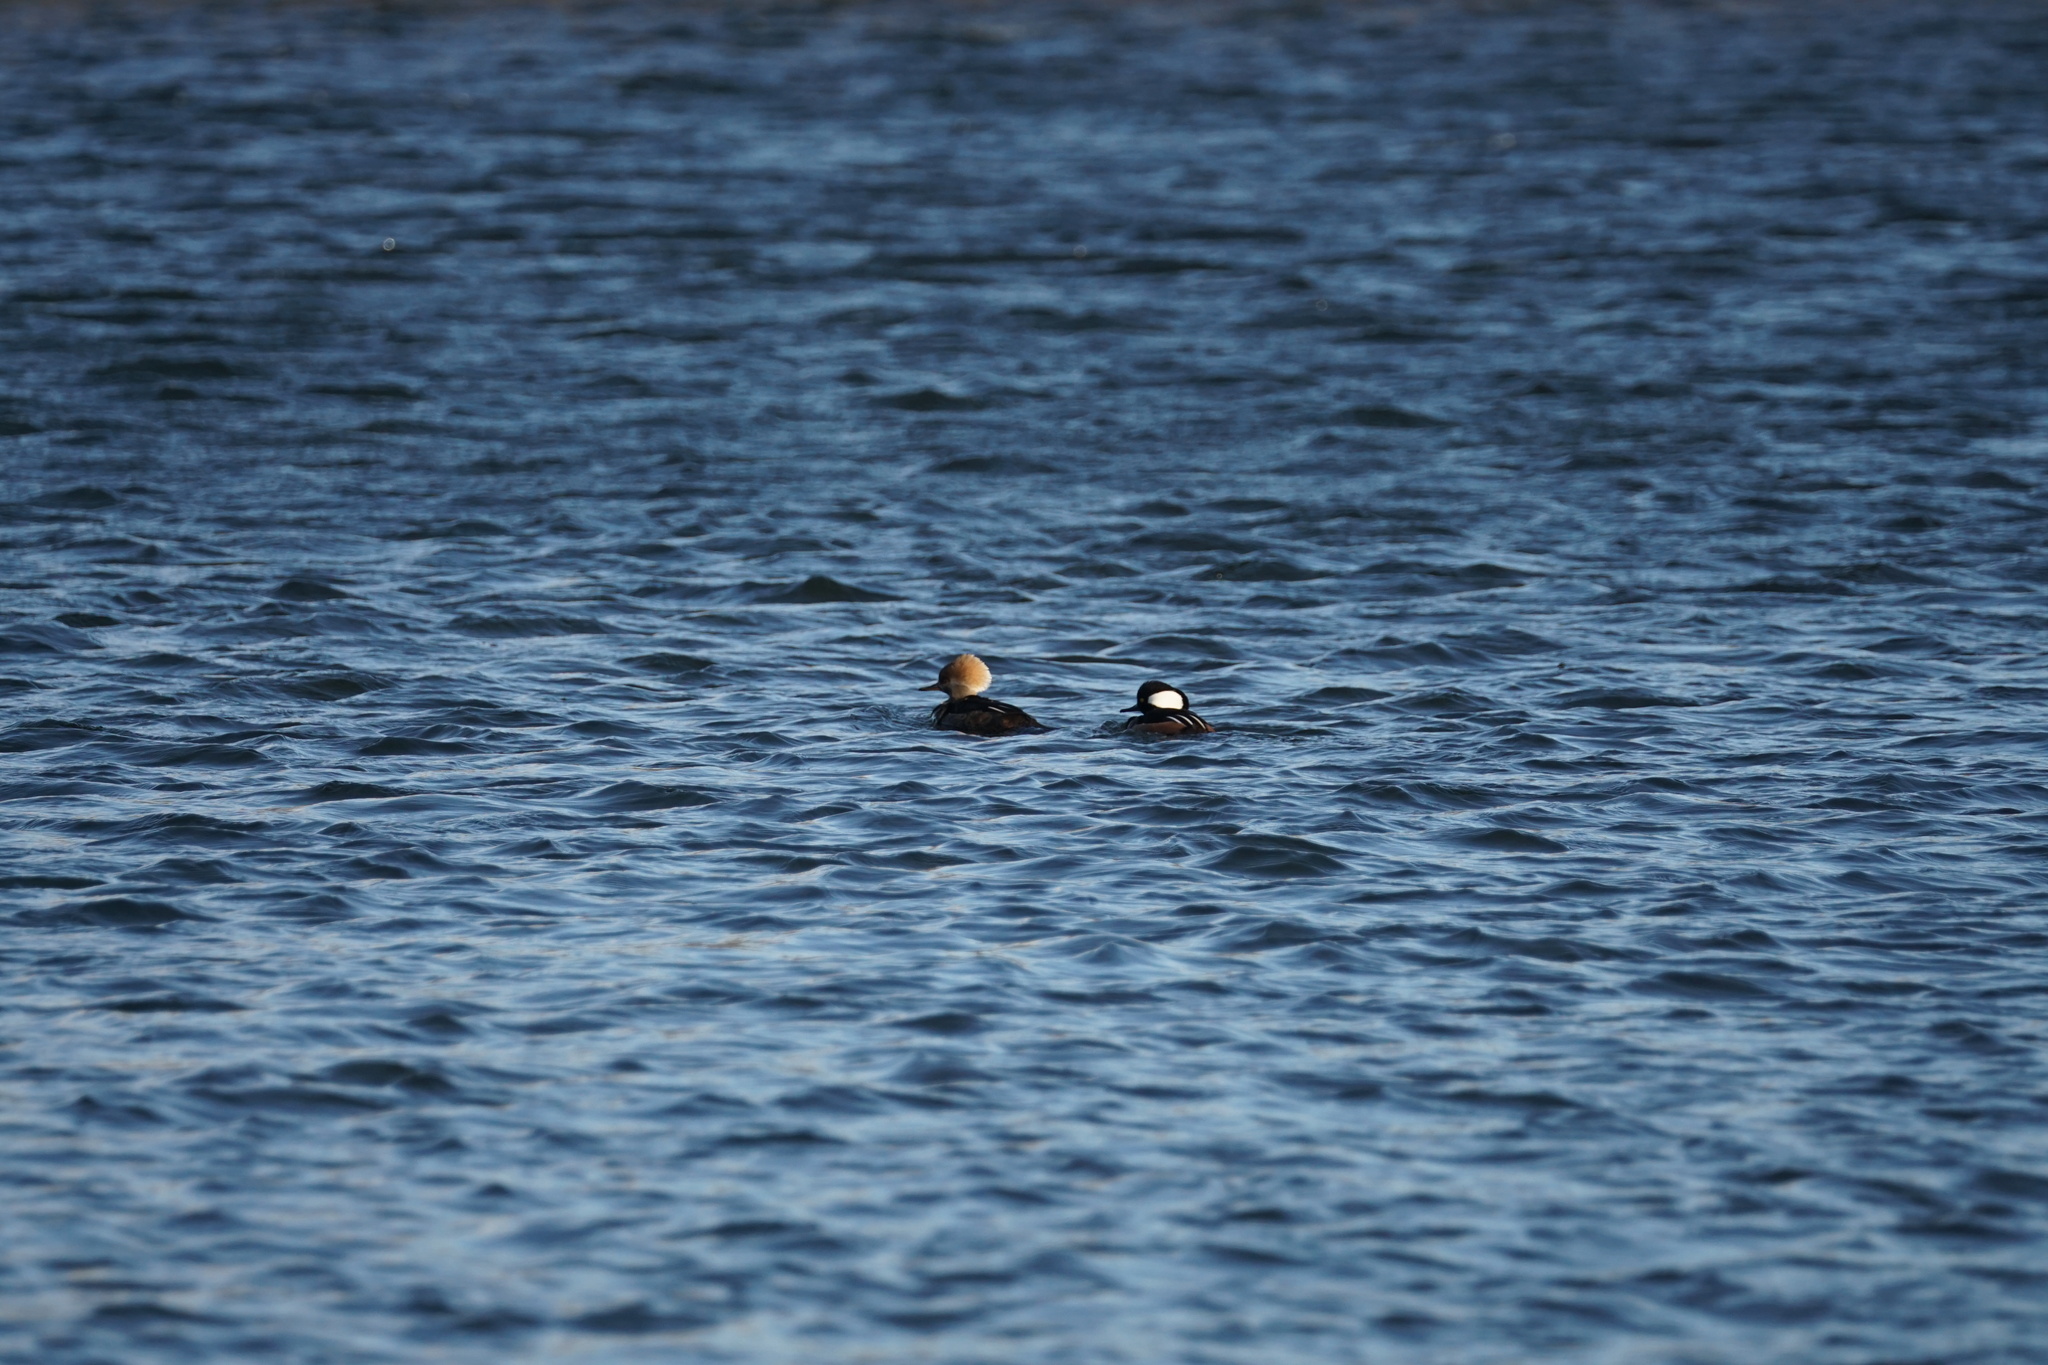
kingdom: Animalia
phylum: Chordata
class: Aves
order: Anseriformes
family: Anatidae
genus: Lophodytes
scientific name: Lophodytes cucullatus
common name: Hooded merganser
